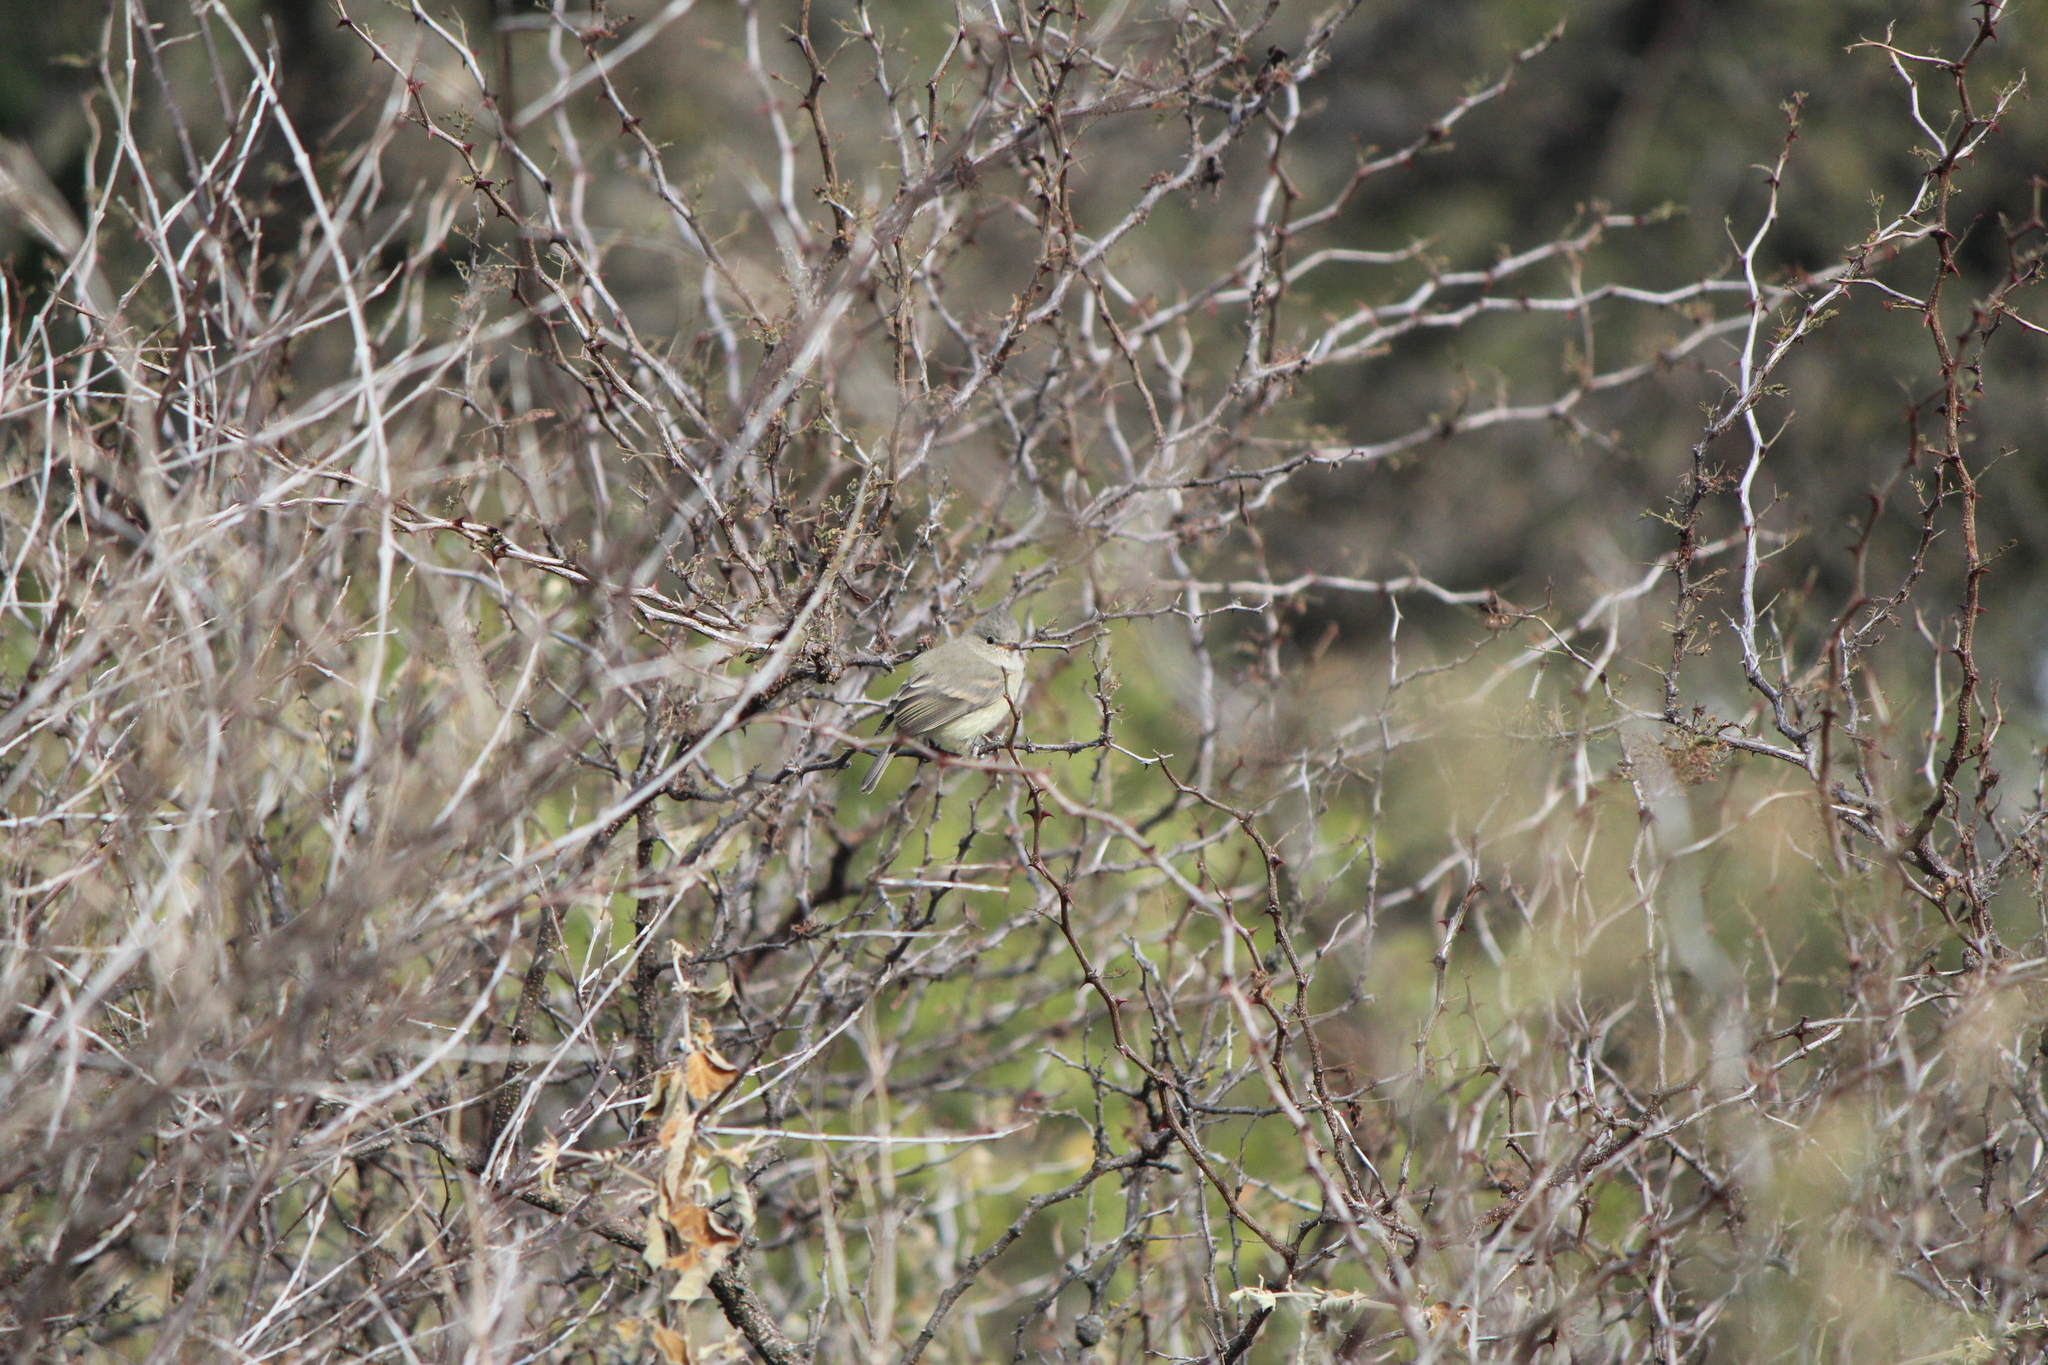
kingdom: Animalia
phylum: Chordata
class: Aves
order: Passeriformes
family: Tyrannidae
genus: Camptostoma
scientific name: Camptostoma imberbe
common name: Northern beardless-tyrannulet
